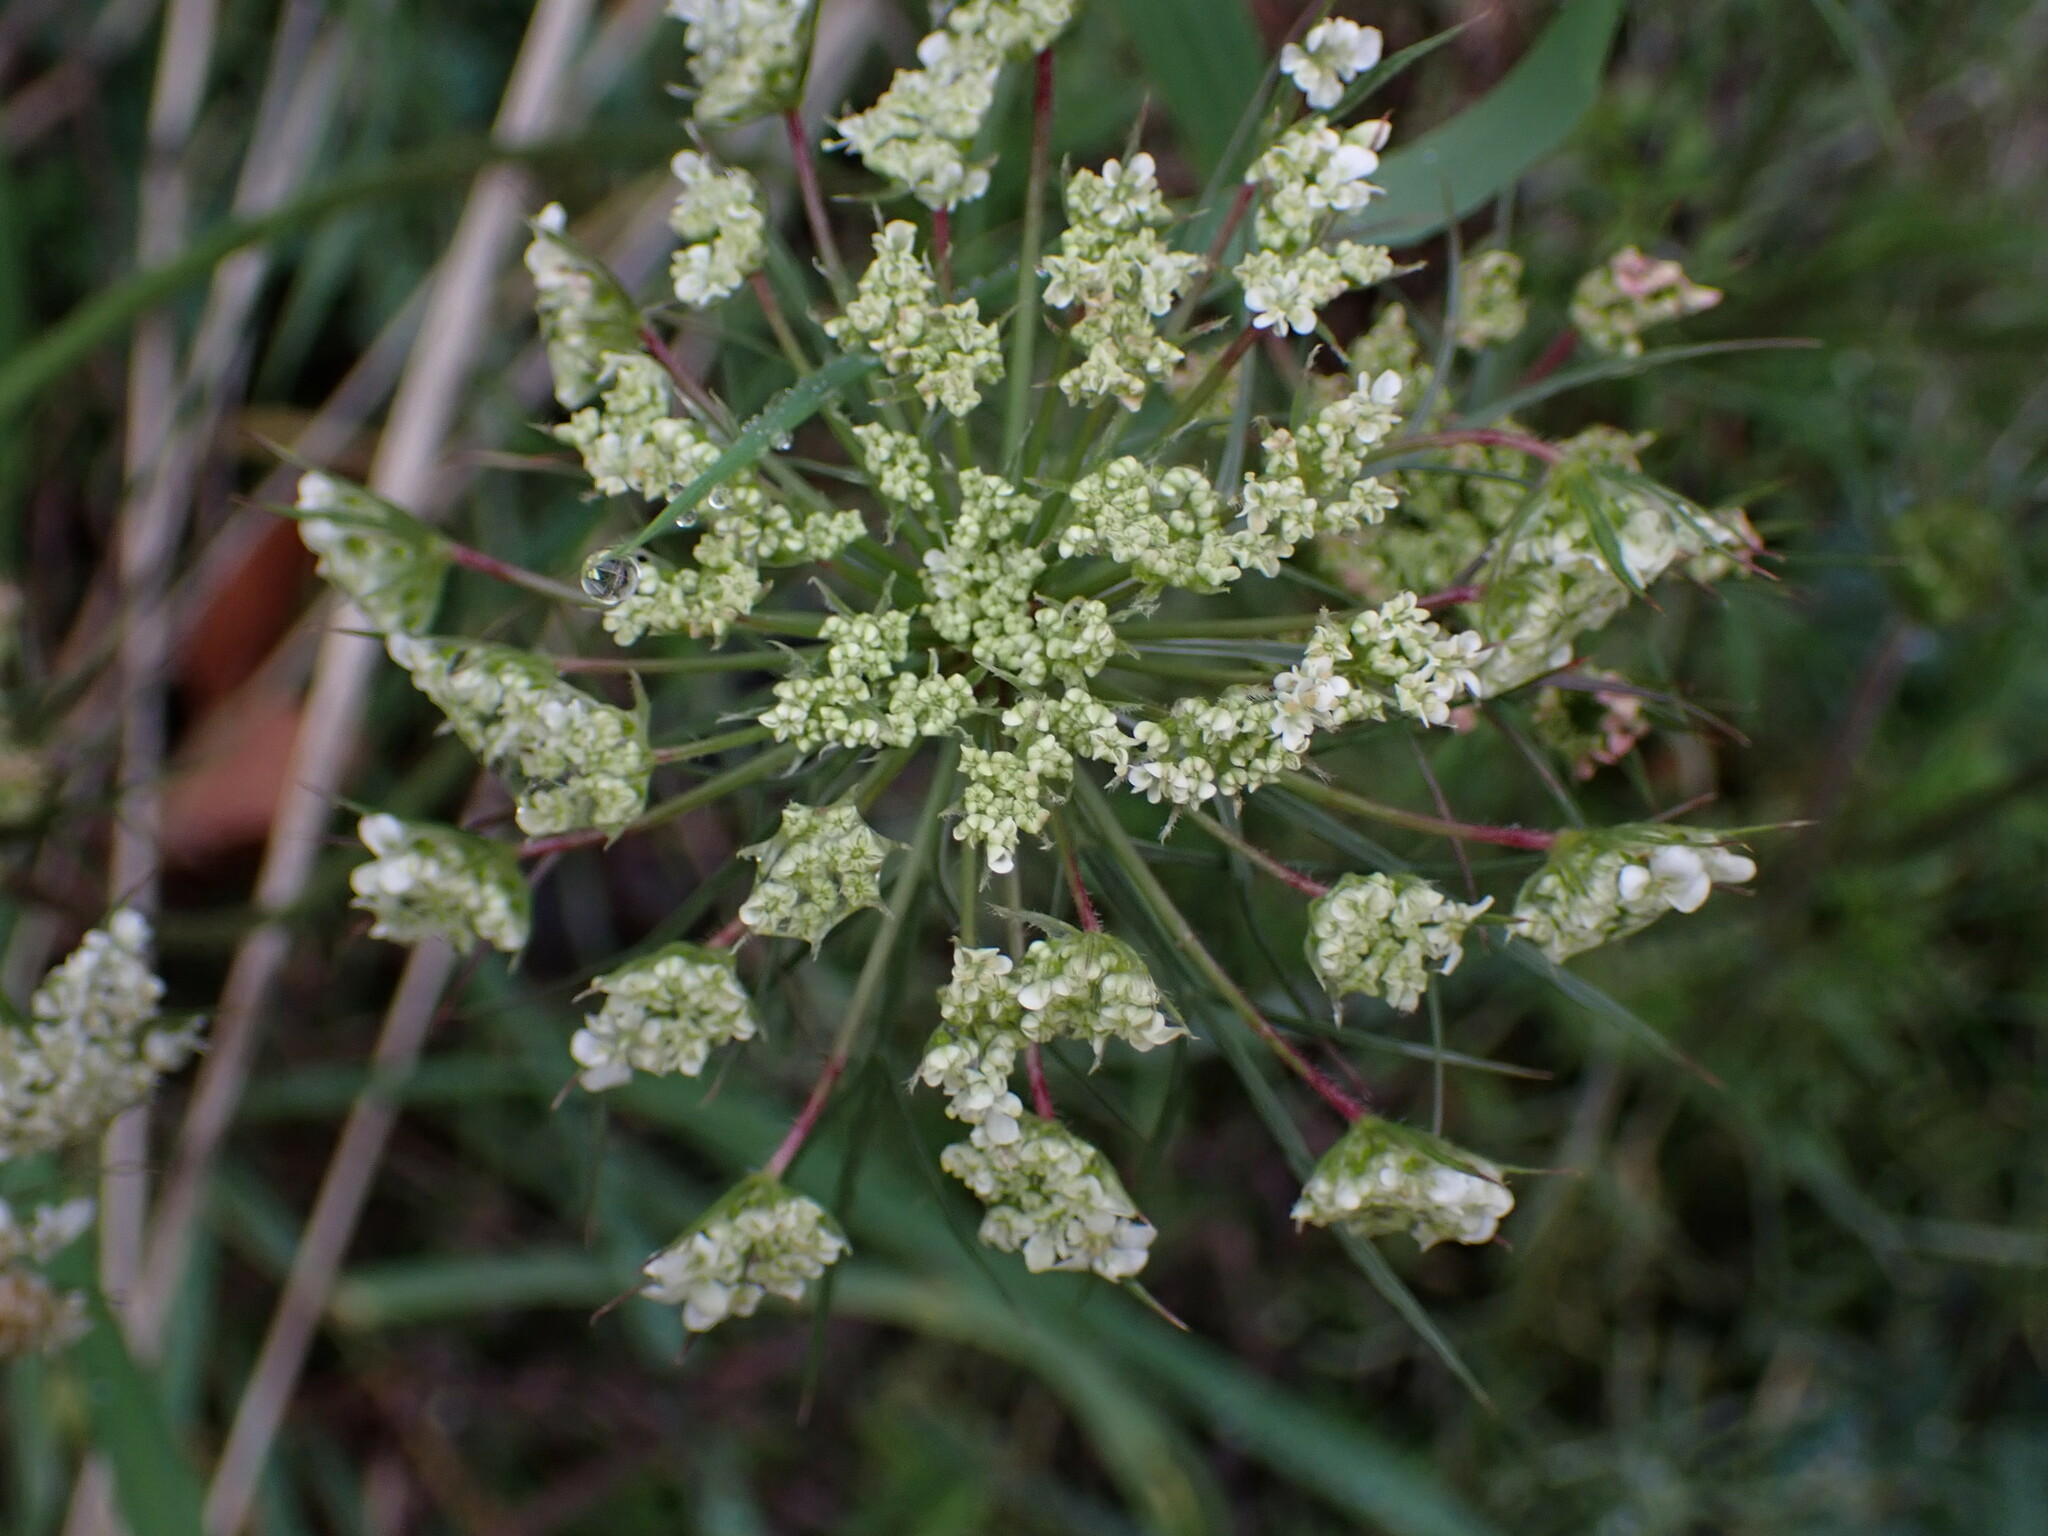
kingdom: Plantae
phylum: Tracheophyta
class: Magnoliopsida
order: Apiales
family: Apiaceae
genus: Daucus
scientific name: Daucus carota
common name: Wild carrot
